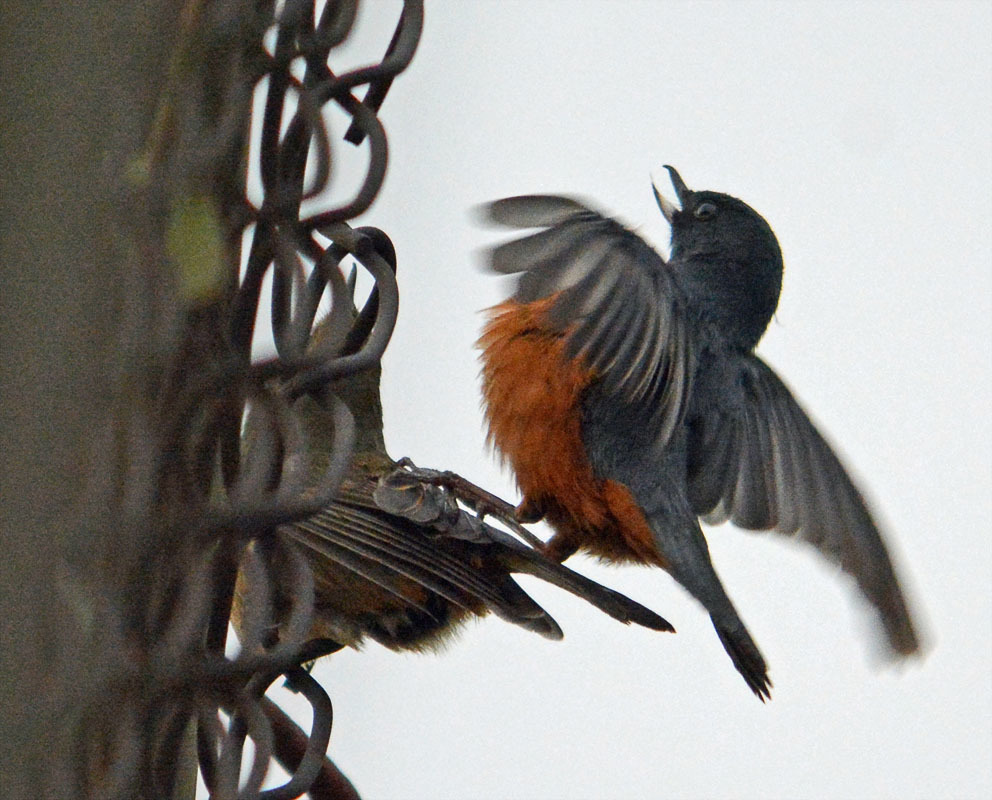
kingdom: Animalia
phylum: Chordata
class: Aves
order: Passeriformes
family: Thraupidae
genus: Diglossa
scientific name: Diglossa baritula
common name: Cinnamon-bellied flowerpiercer
